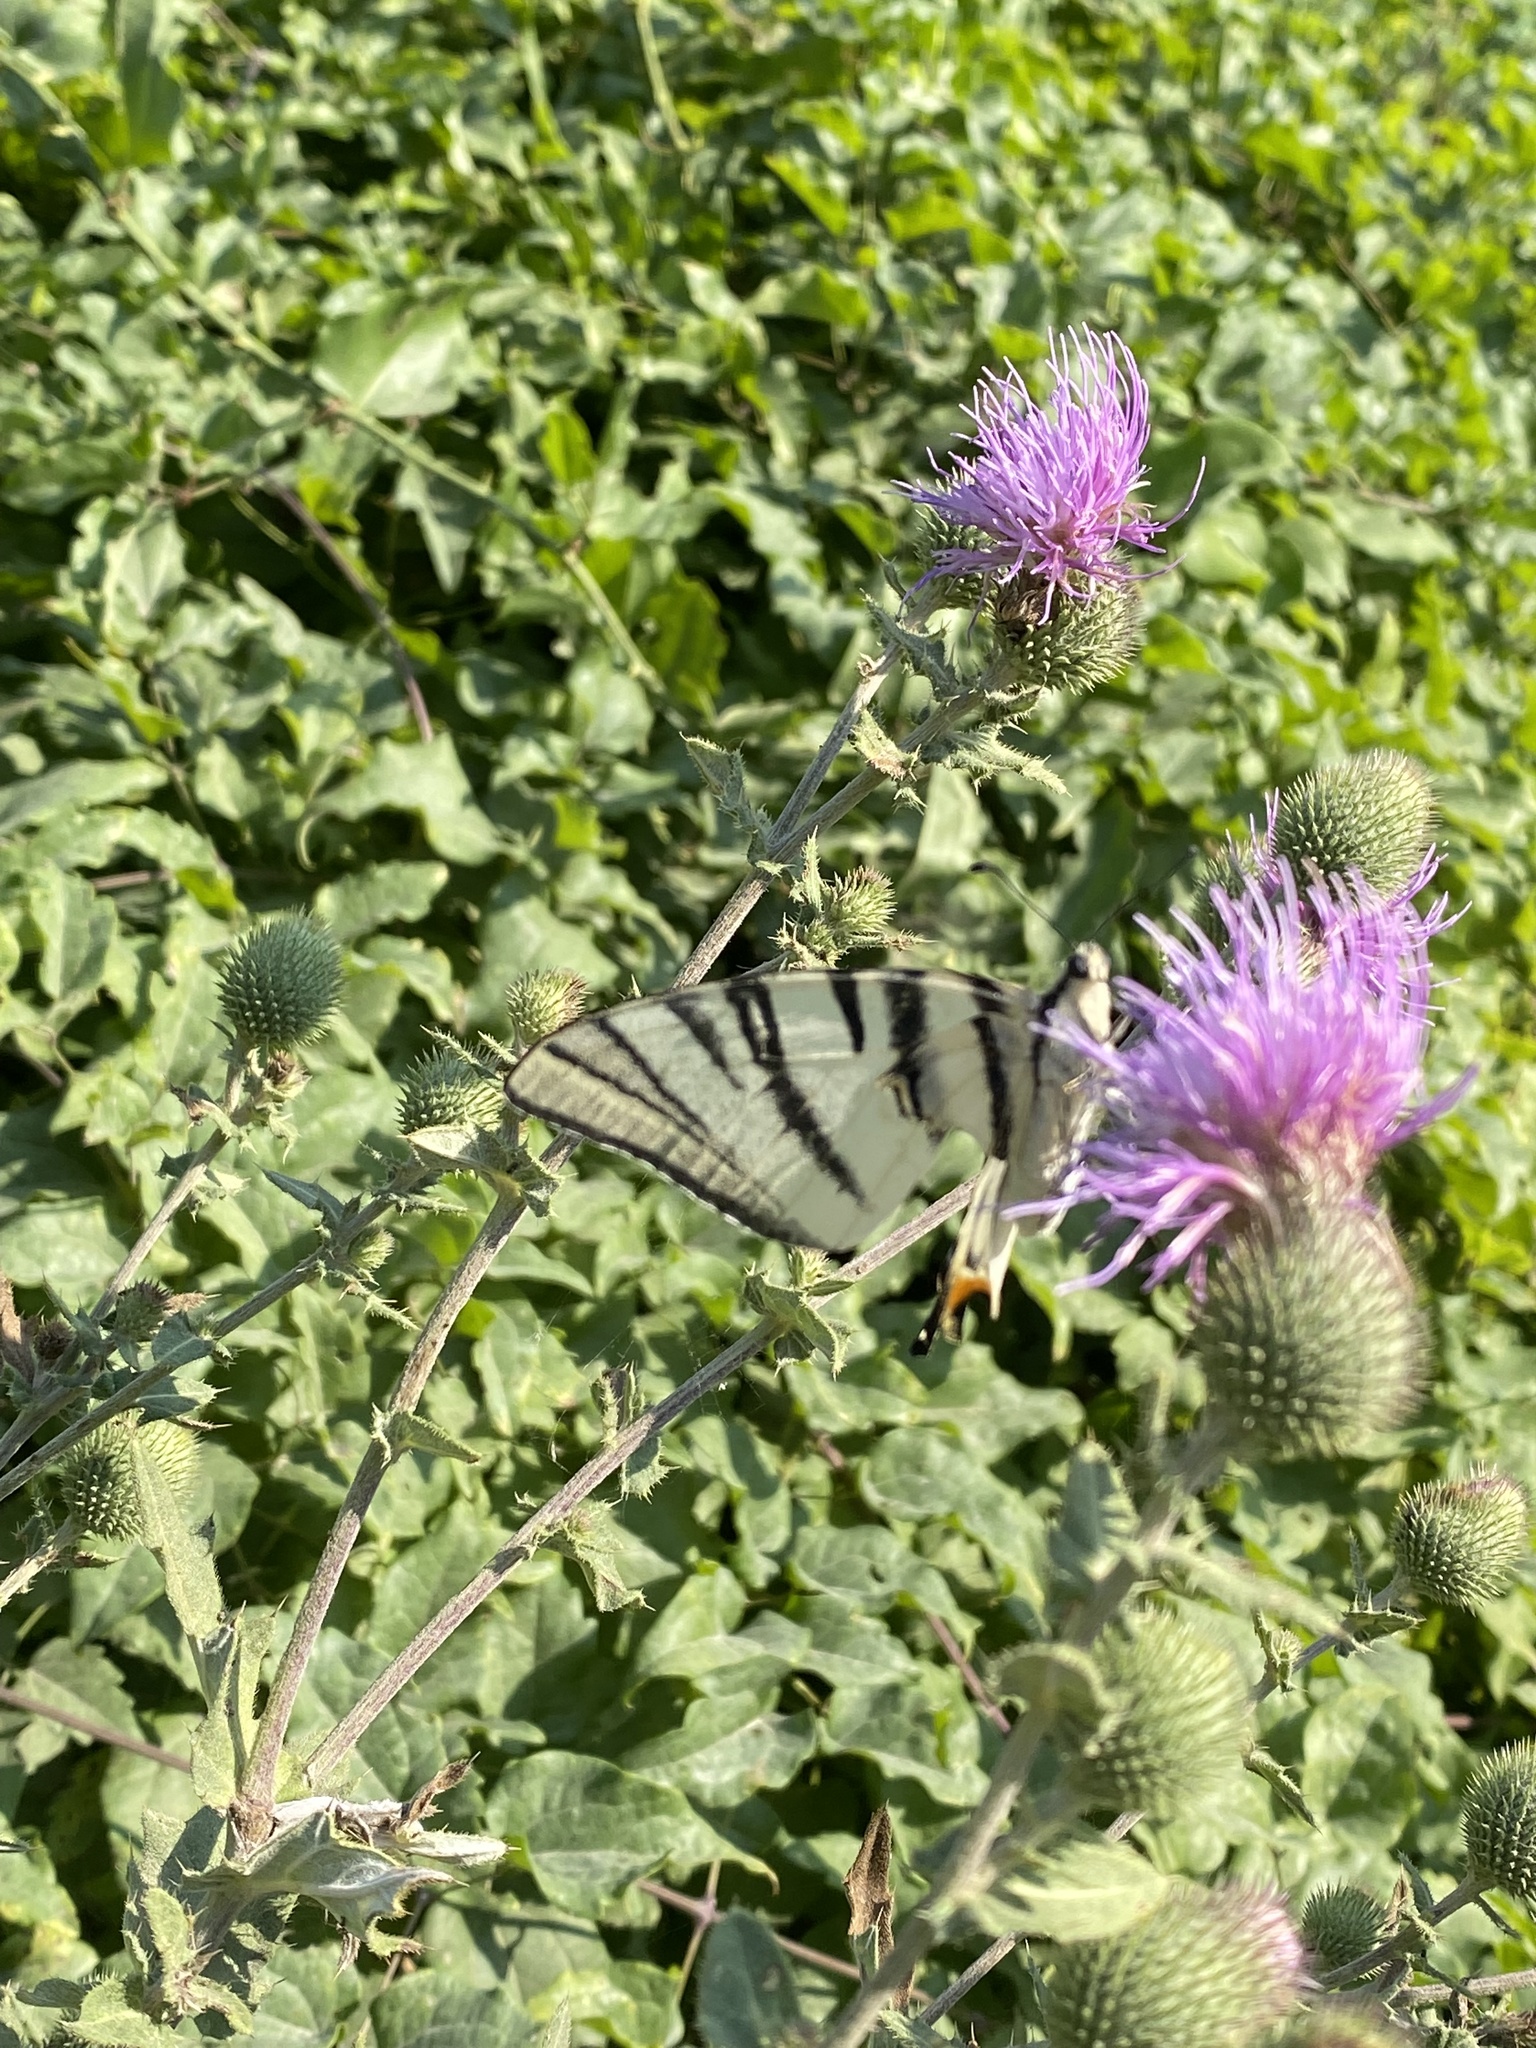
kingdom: Animalia
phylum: Arthropoda
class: Insecta
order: Lepidoptera
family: Papilionidae
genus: Iphiclides
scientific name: Iphiclides podalirius
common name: Scarce swallowtail
